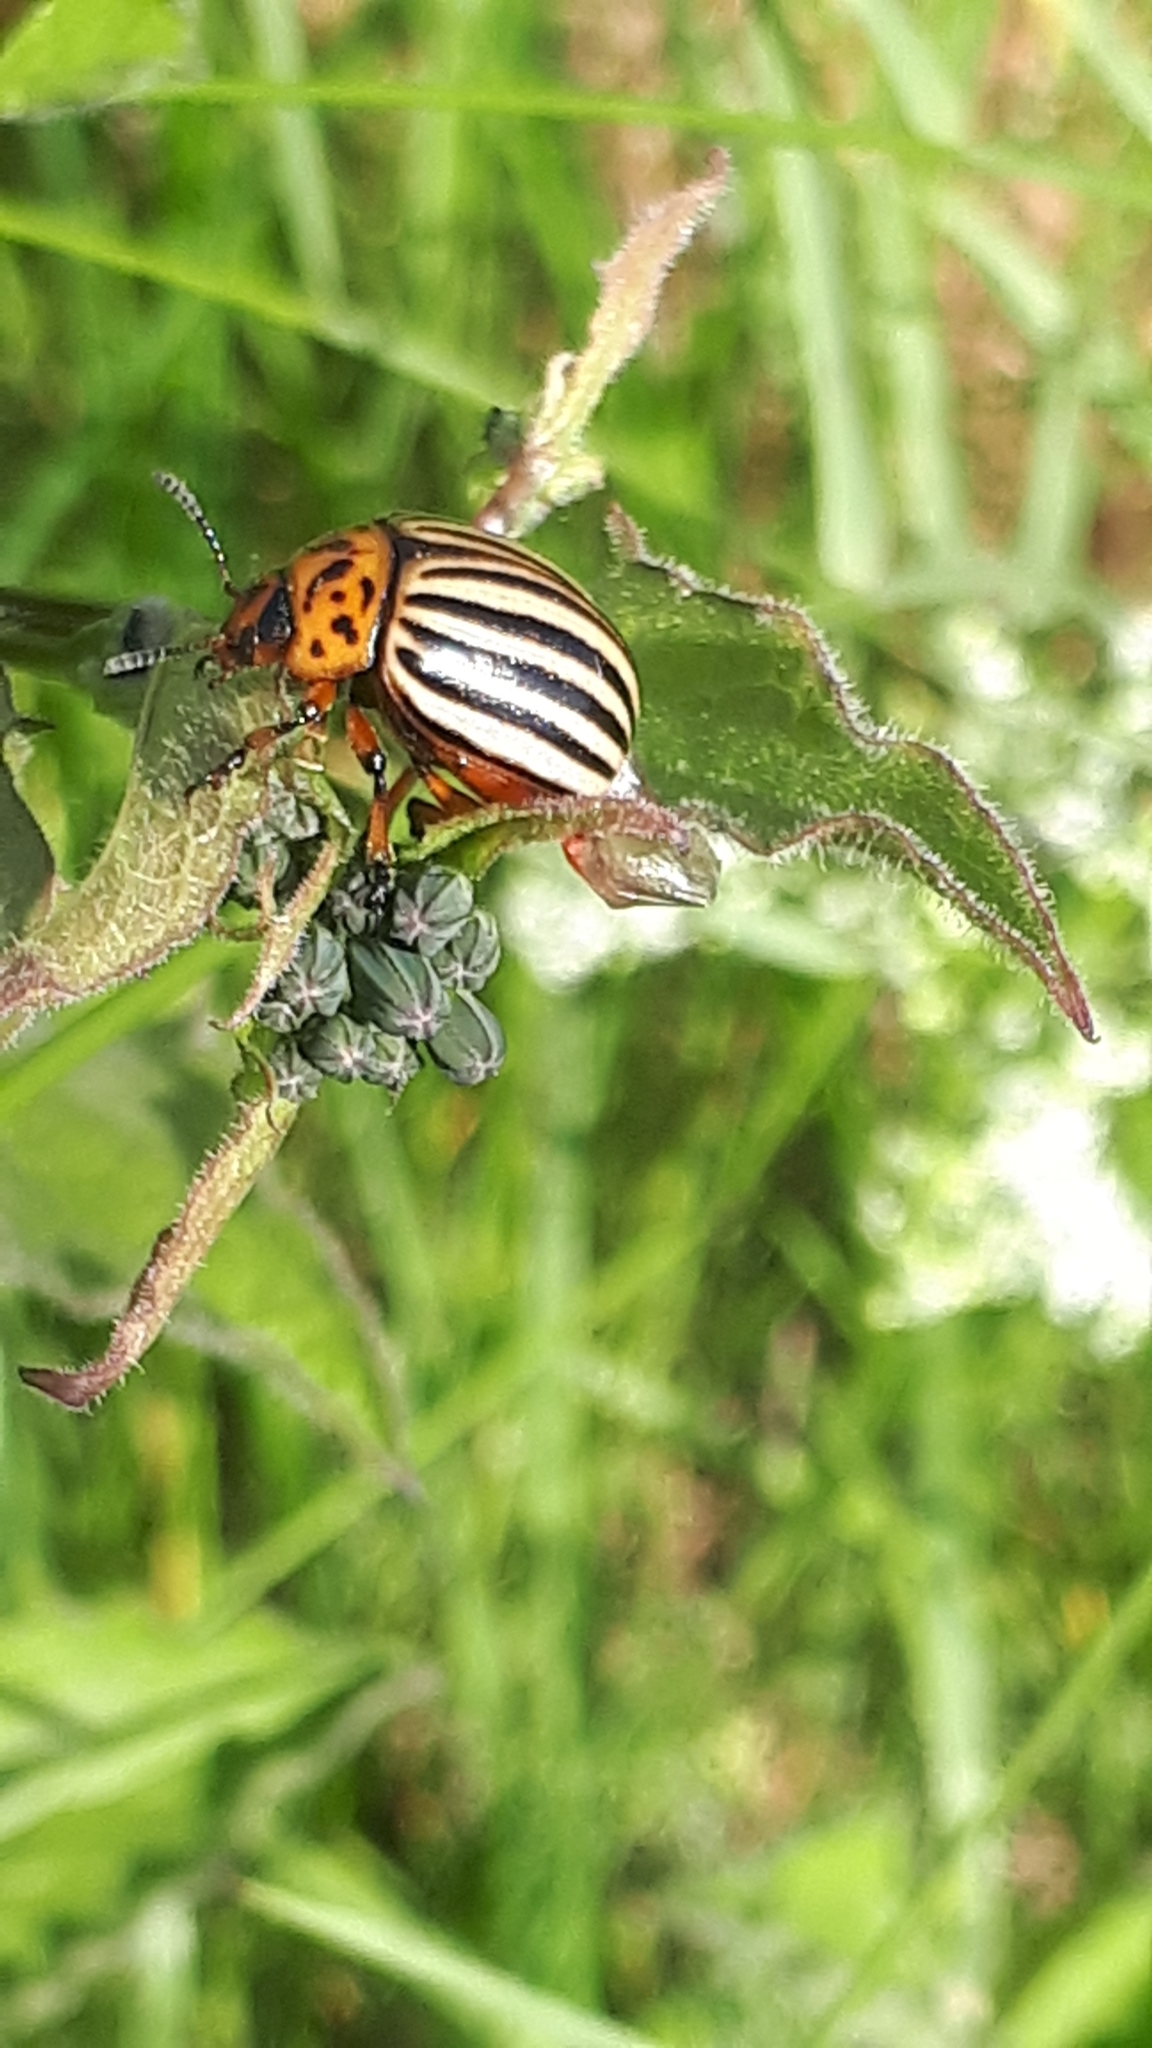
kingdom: Animalia
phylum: Arthropoda
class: Insecta
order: Coleoptera
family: Chrysomelidae
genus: Leptinotarsa
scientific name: Leptinotarsa decemlineata
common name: Colorado potato beetle
